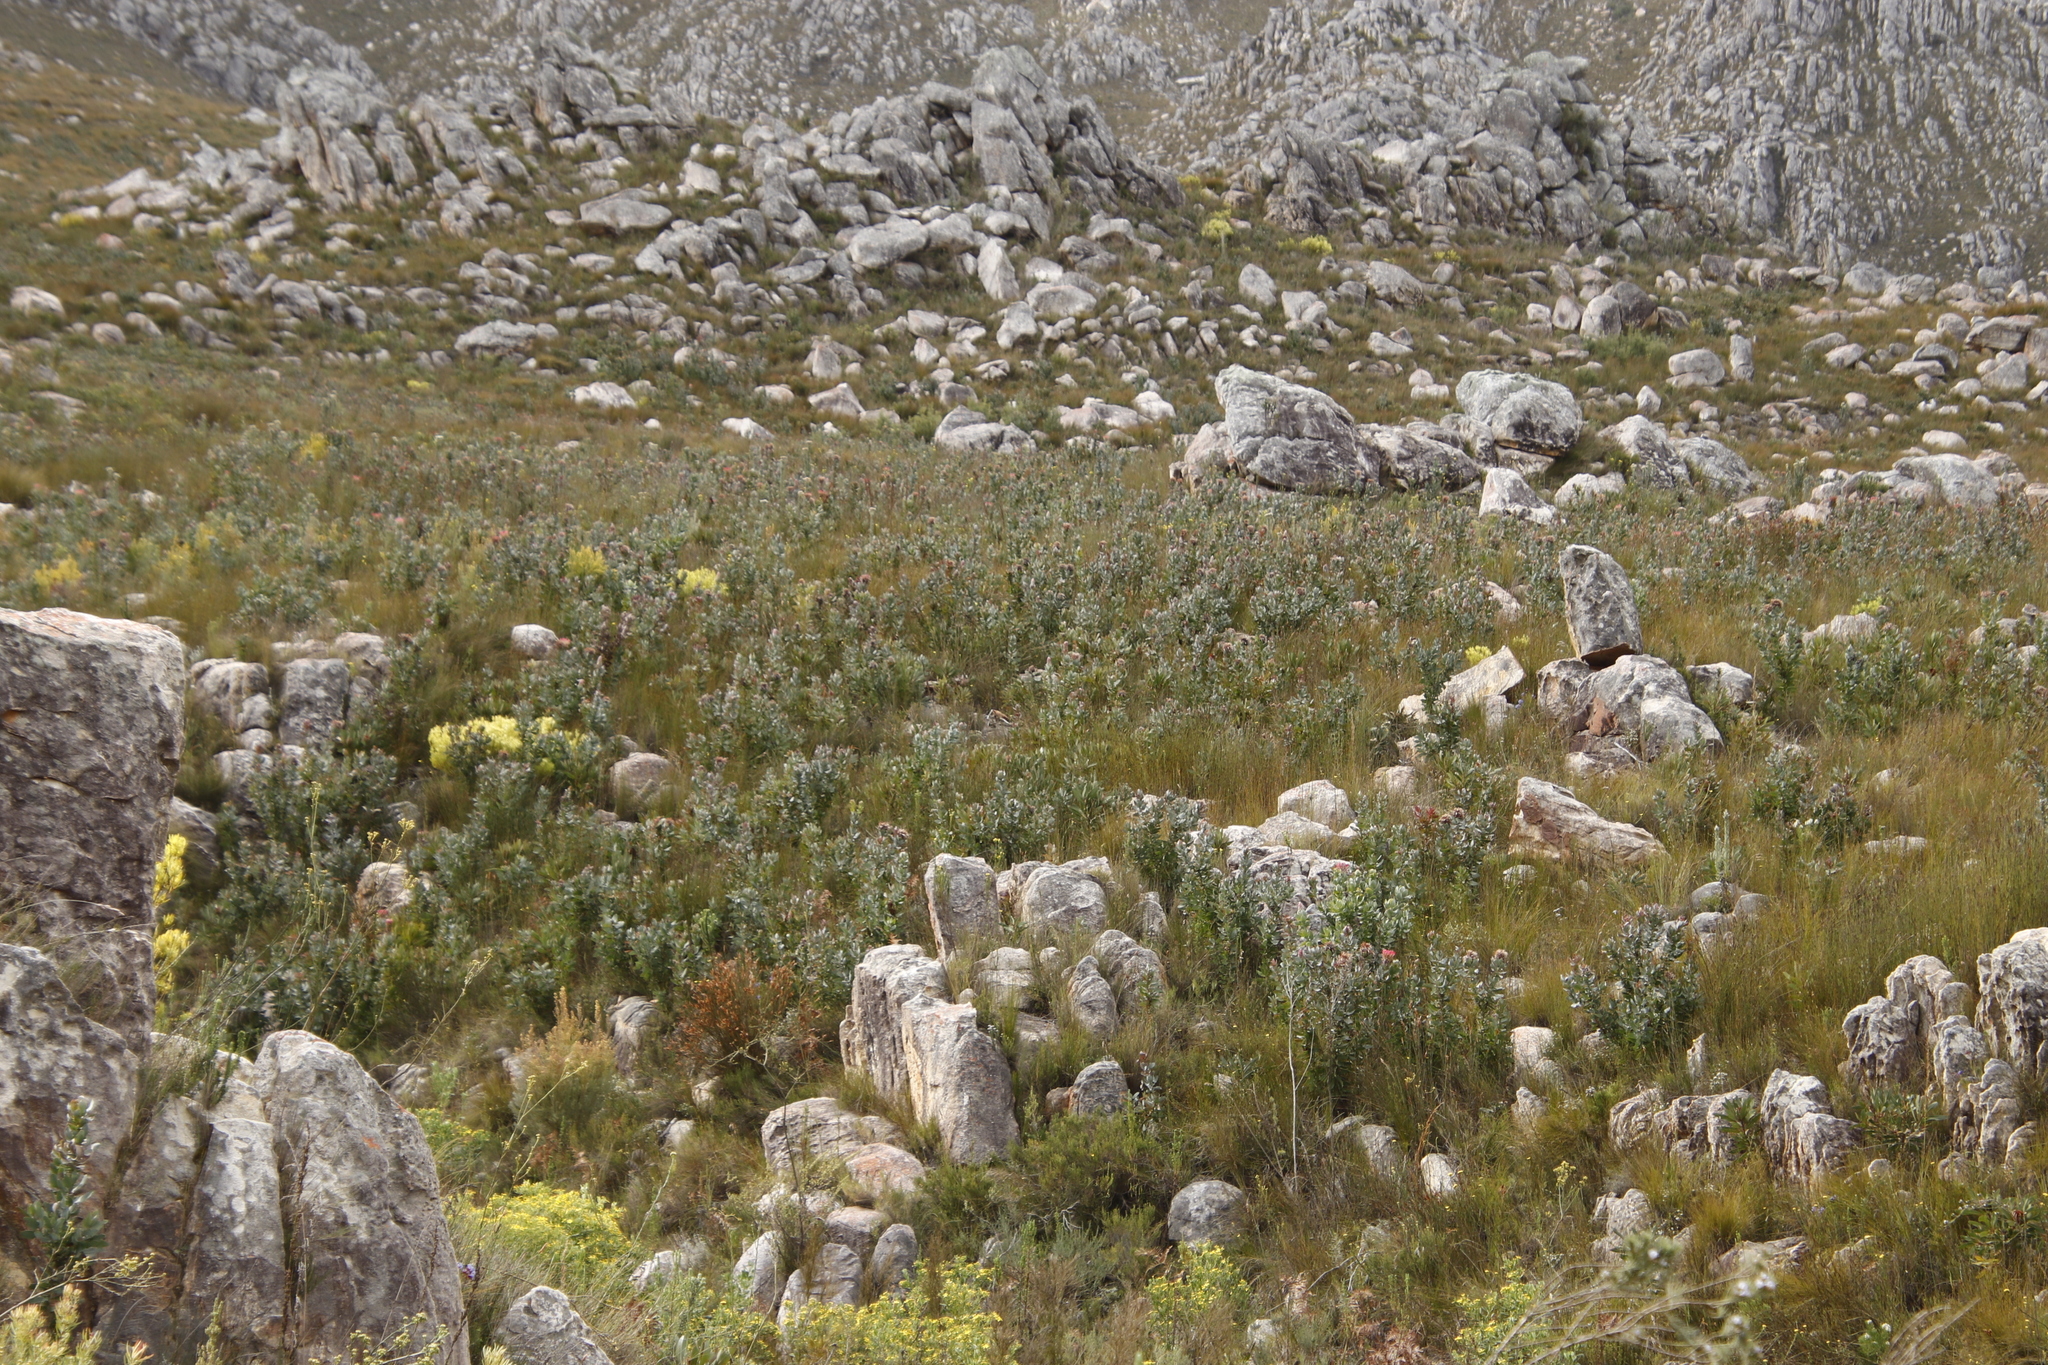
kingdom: Plantae
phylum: Tracheophyta
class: Magnoliopsida
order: Proteales
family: Proteaceae
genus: Protea
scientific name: Protea eximia
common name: Broad-leaved sugarbush
